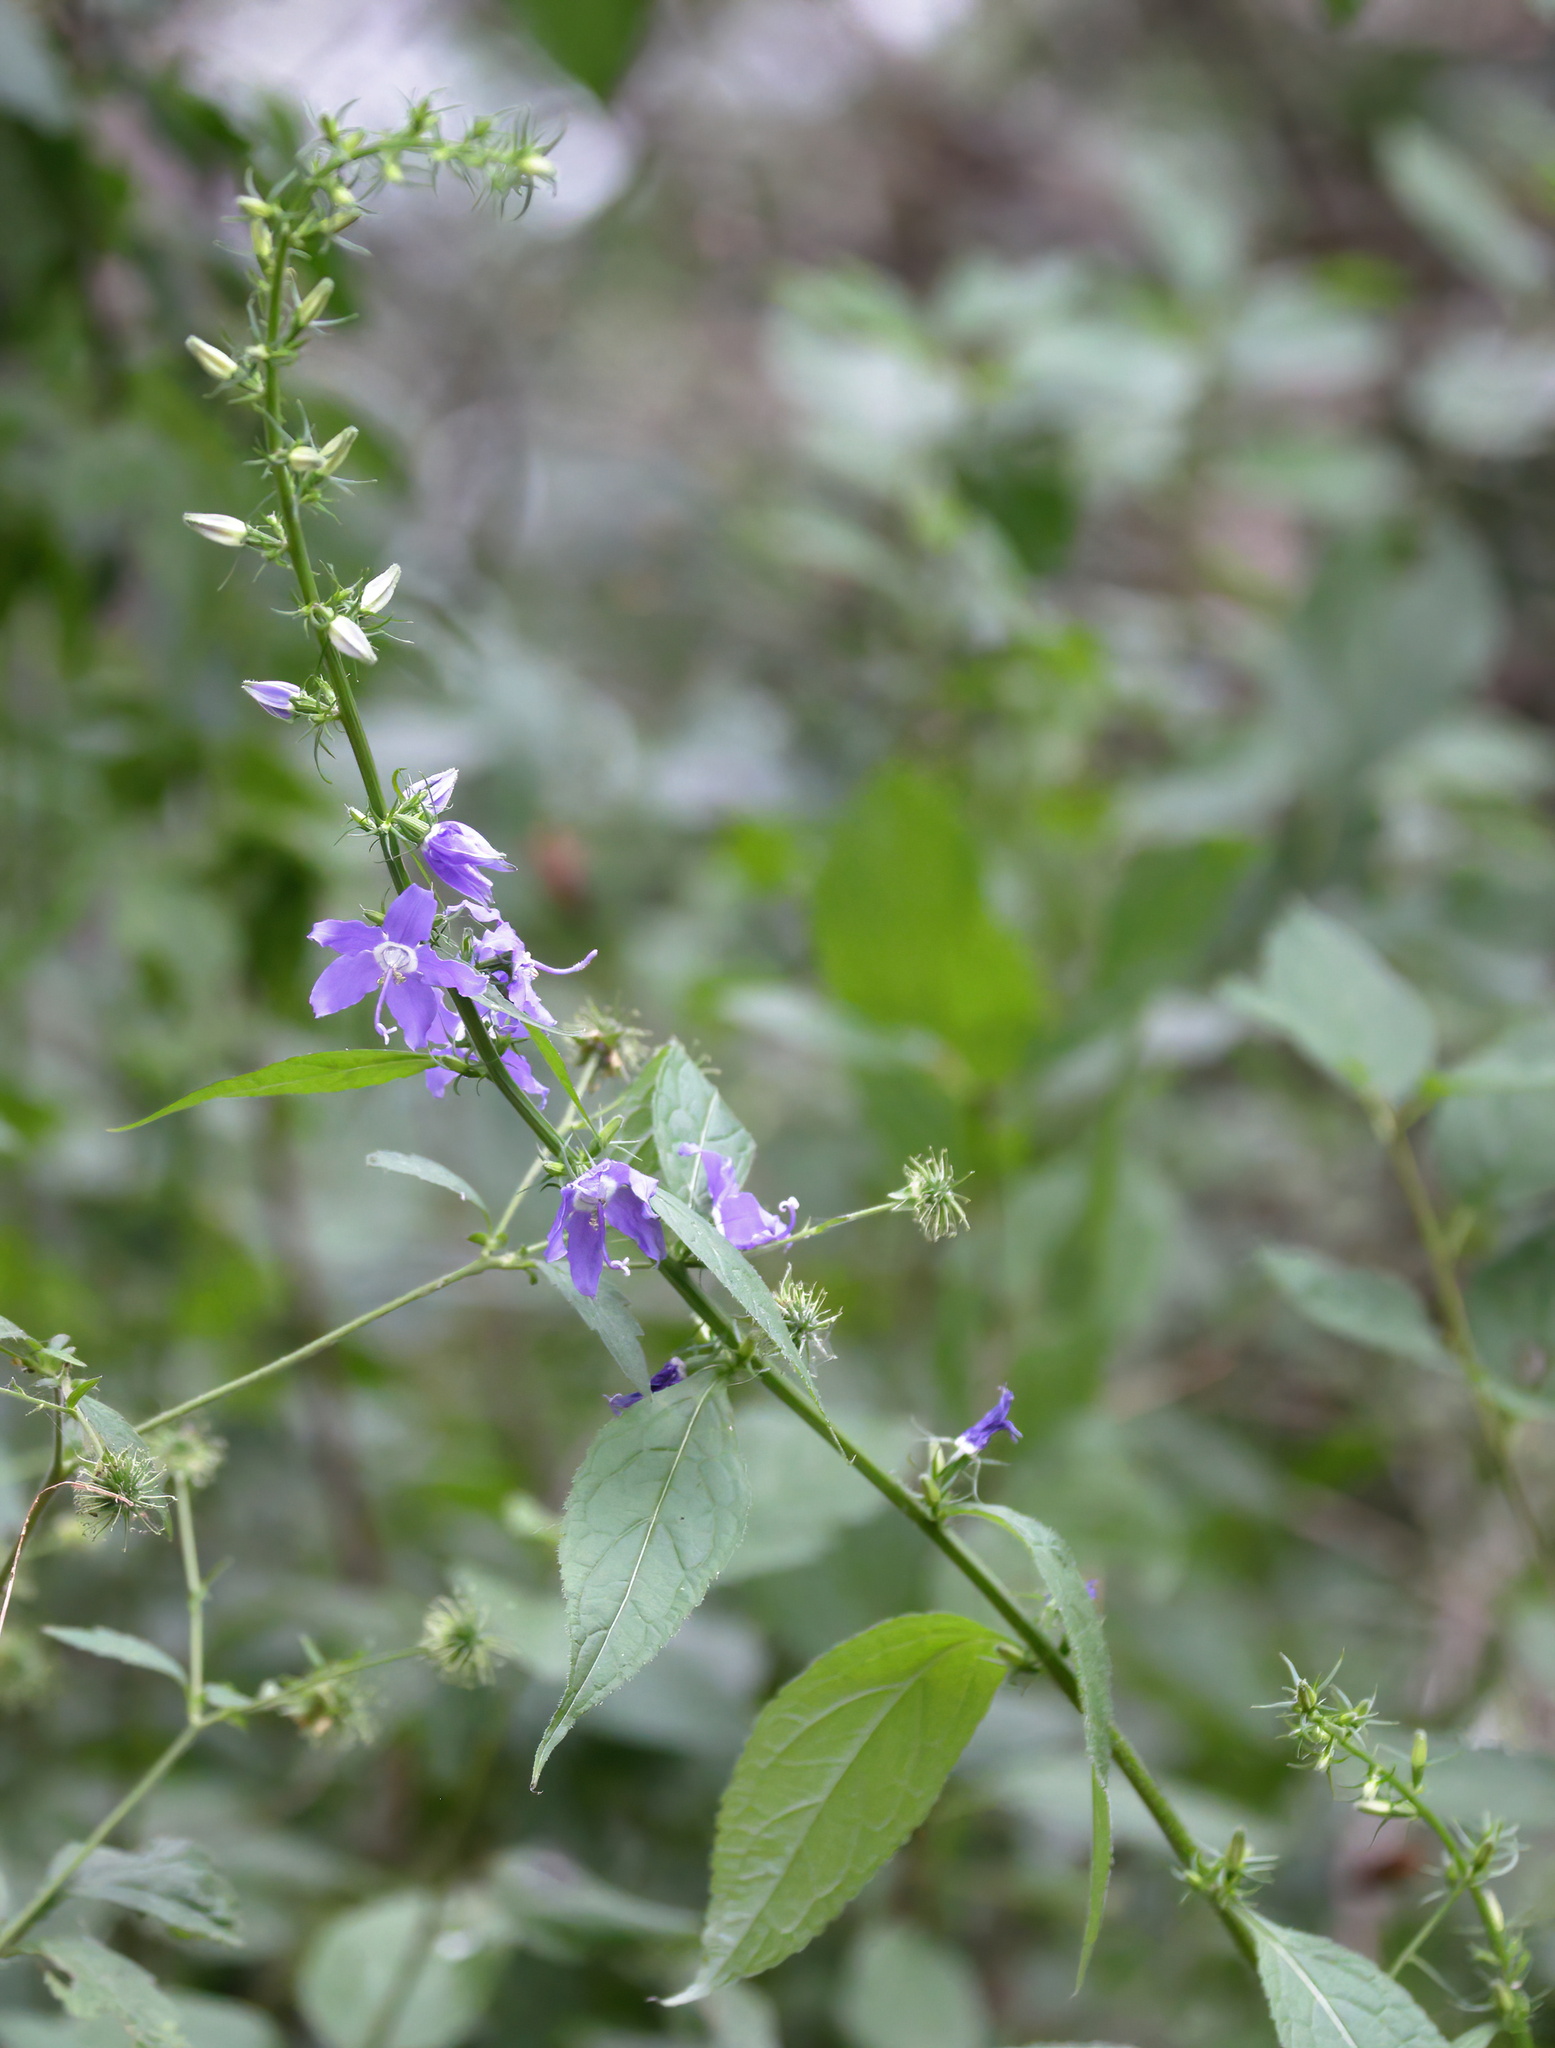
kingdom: Plantae
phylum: Tracheophyta
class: Magnoliopsida
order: Asterales
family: Campanulaceae
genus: Campanulastrum
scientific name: Campanulastrum americanum
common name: American bellflower
